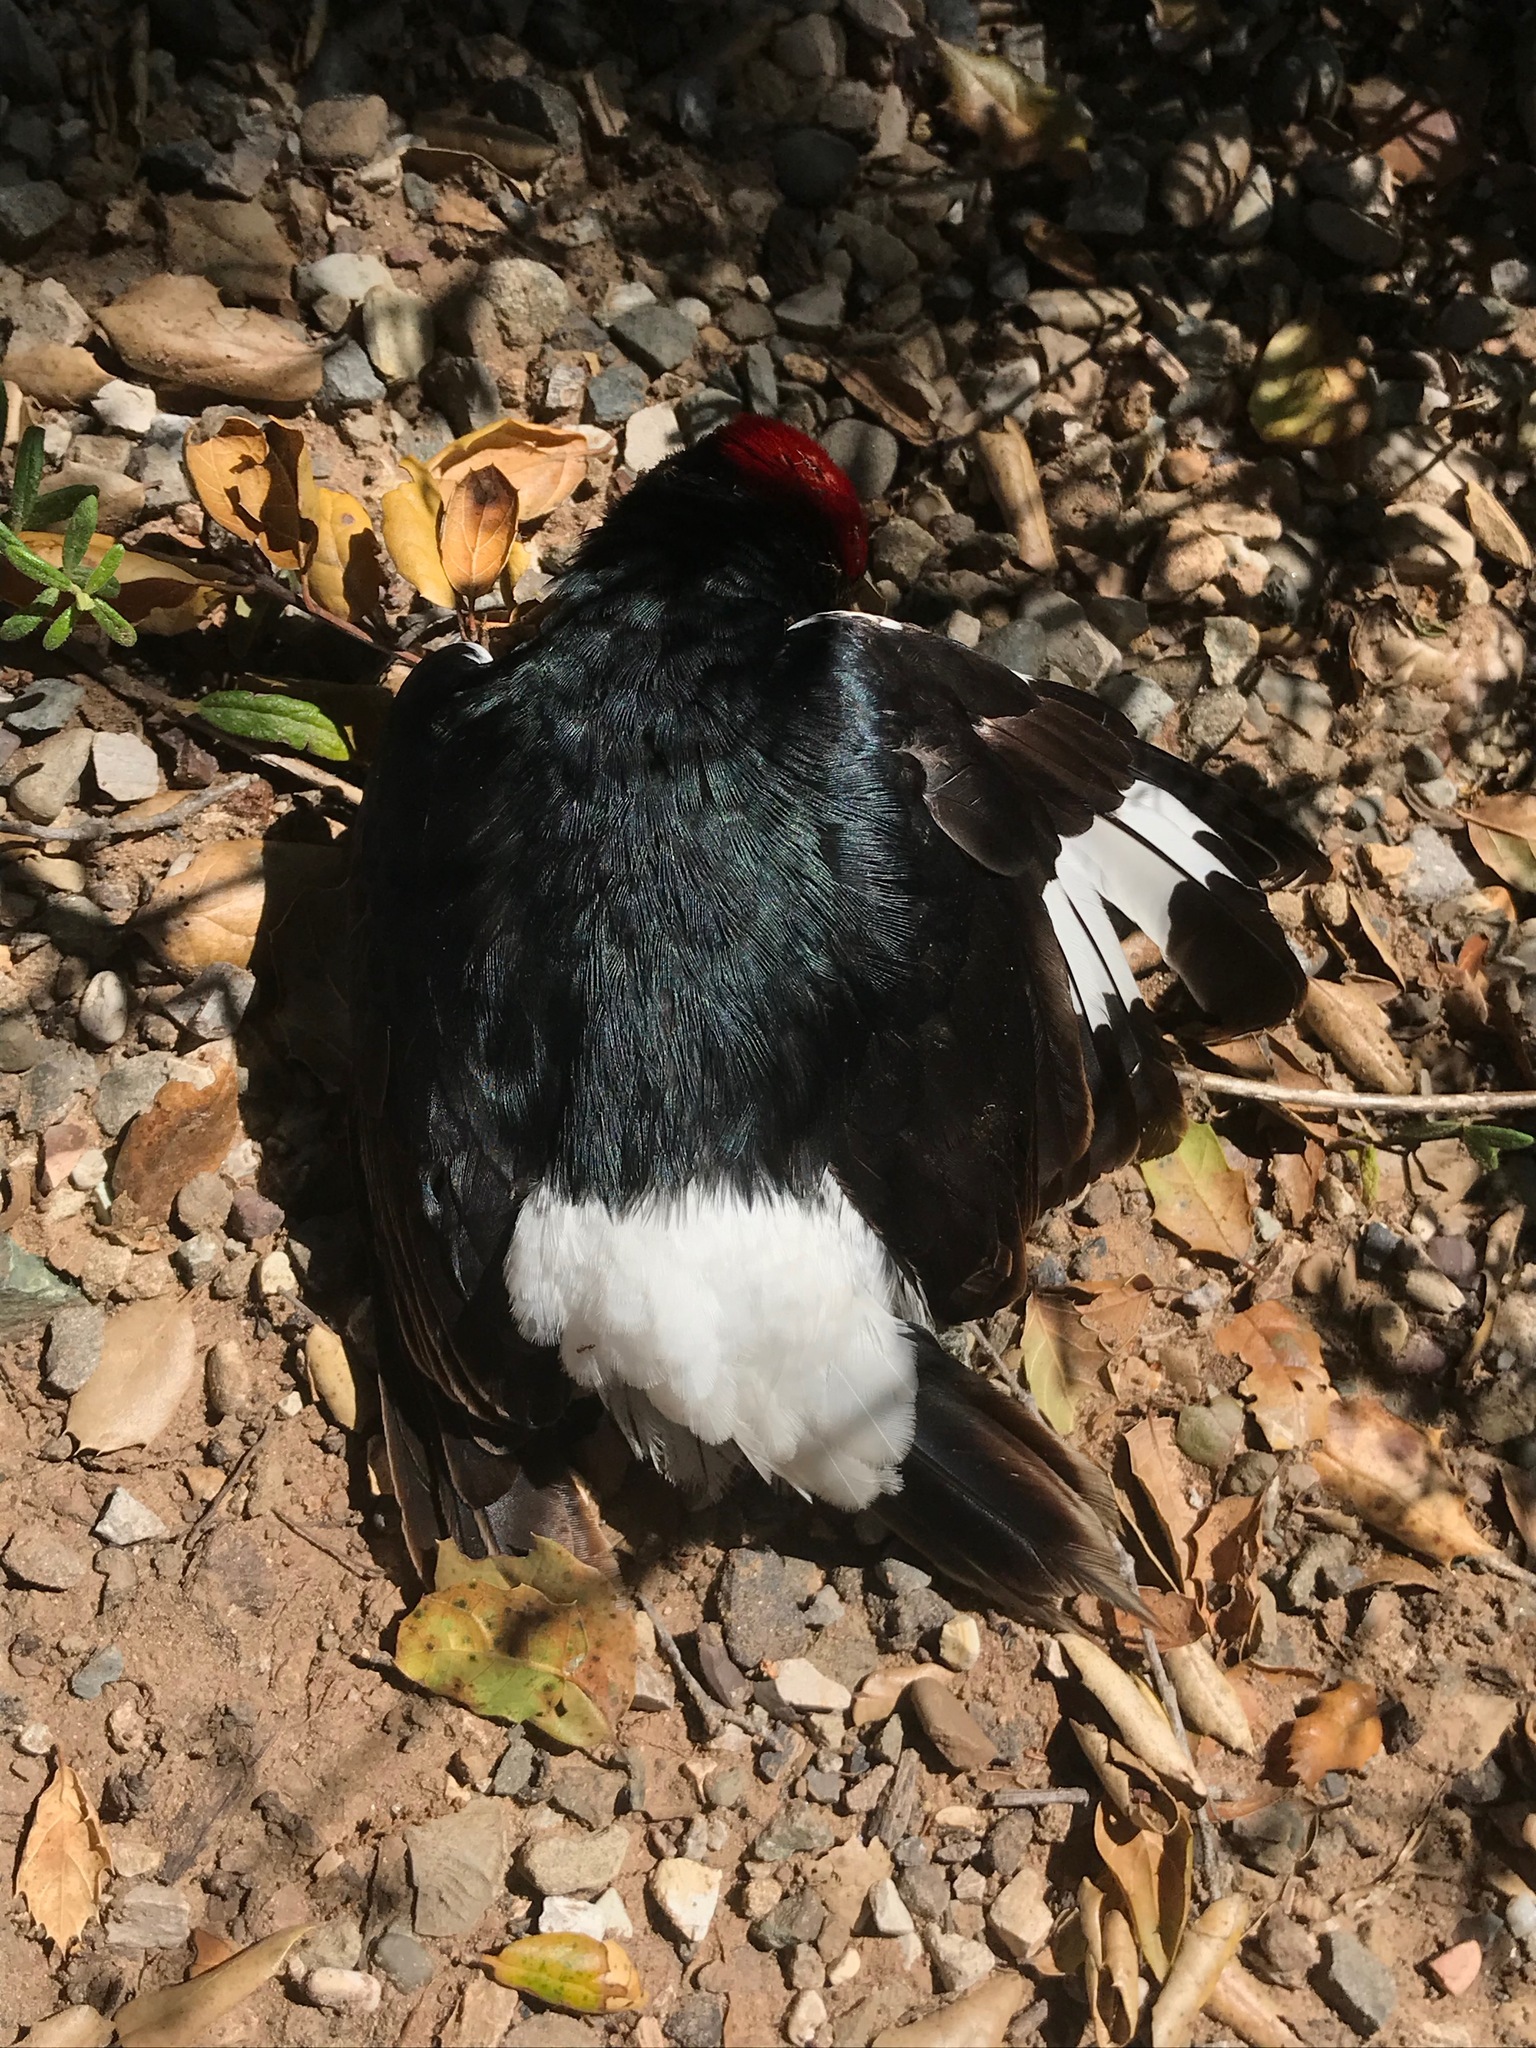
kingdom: Animalia
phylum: Chordata
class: Aves
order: Piciformes
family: Picidae
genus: Melanerpes
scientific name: Melanerpes formicivorus
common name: Acorn woodpecker
